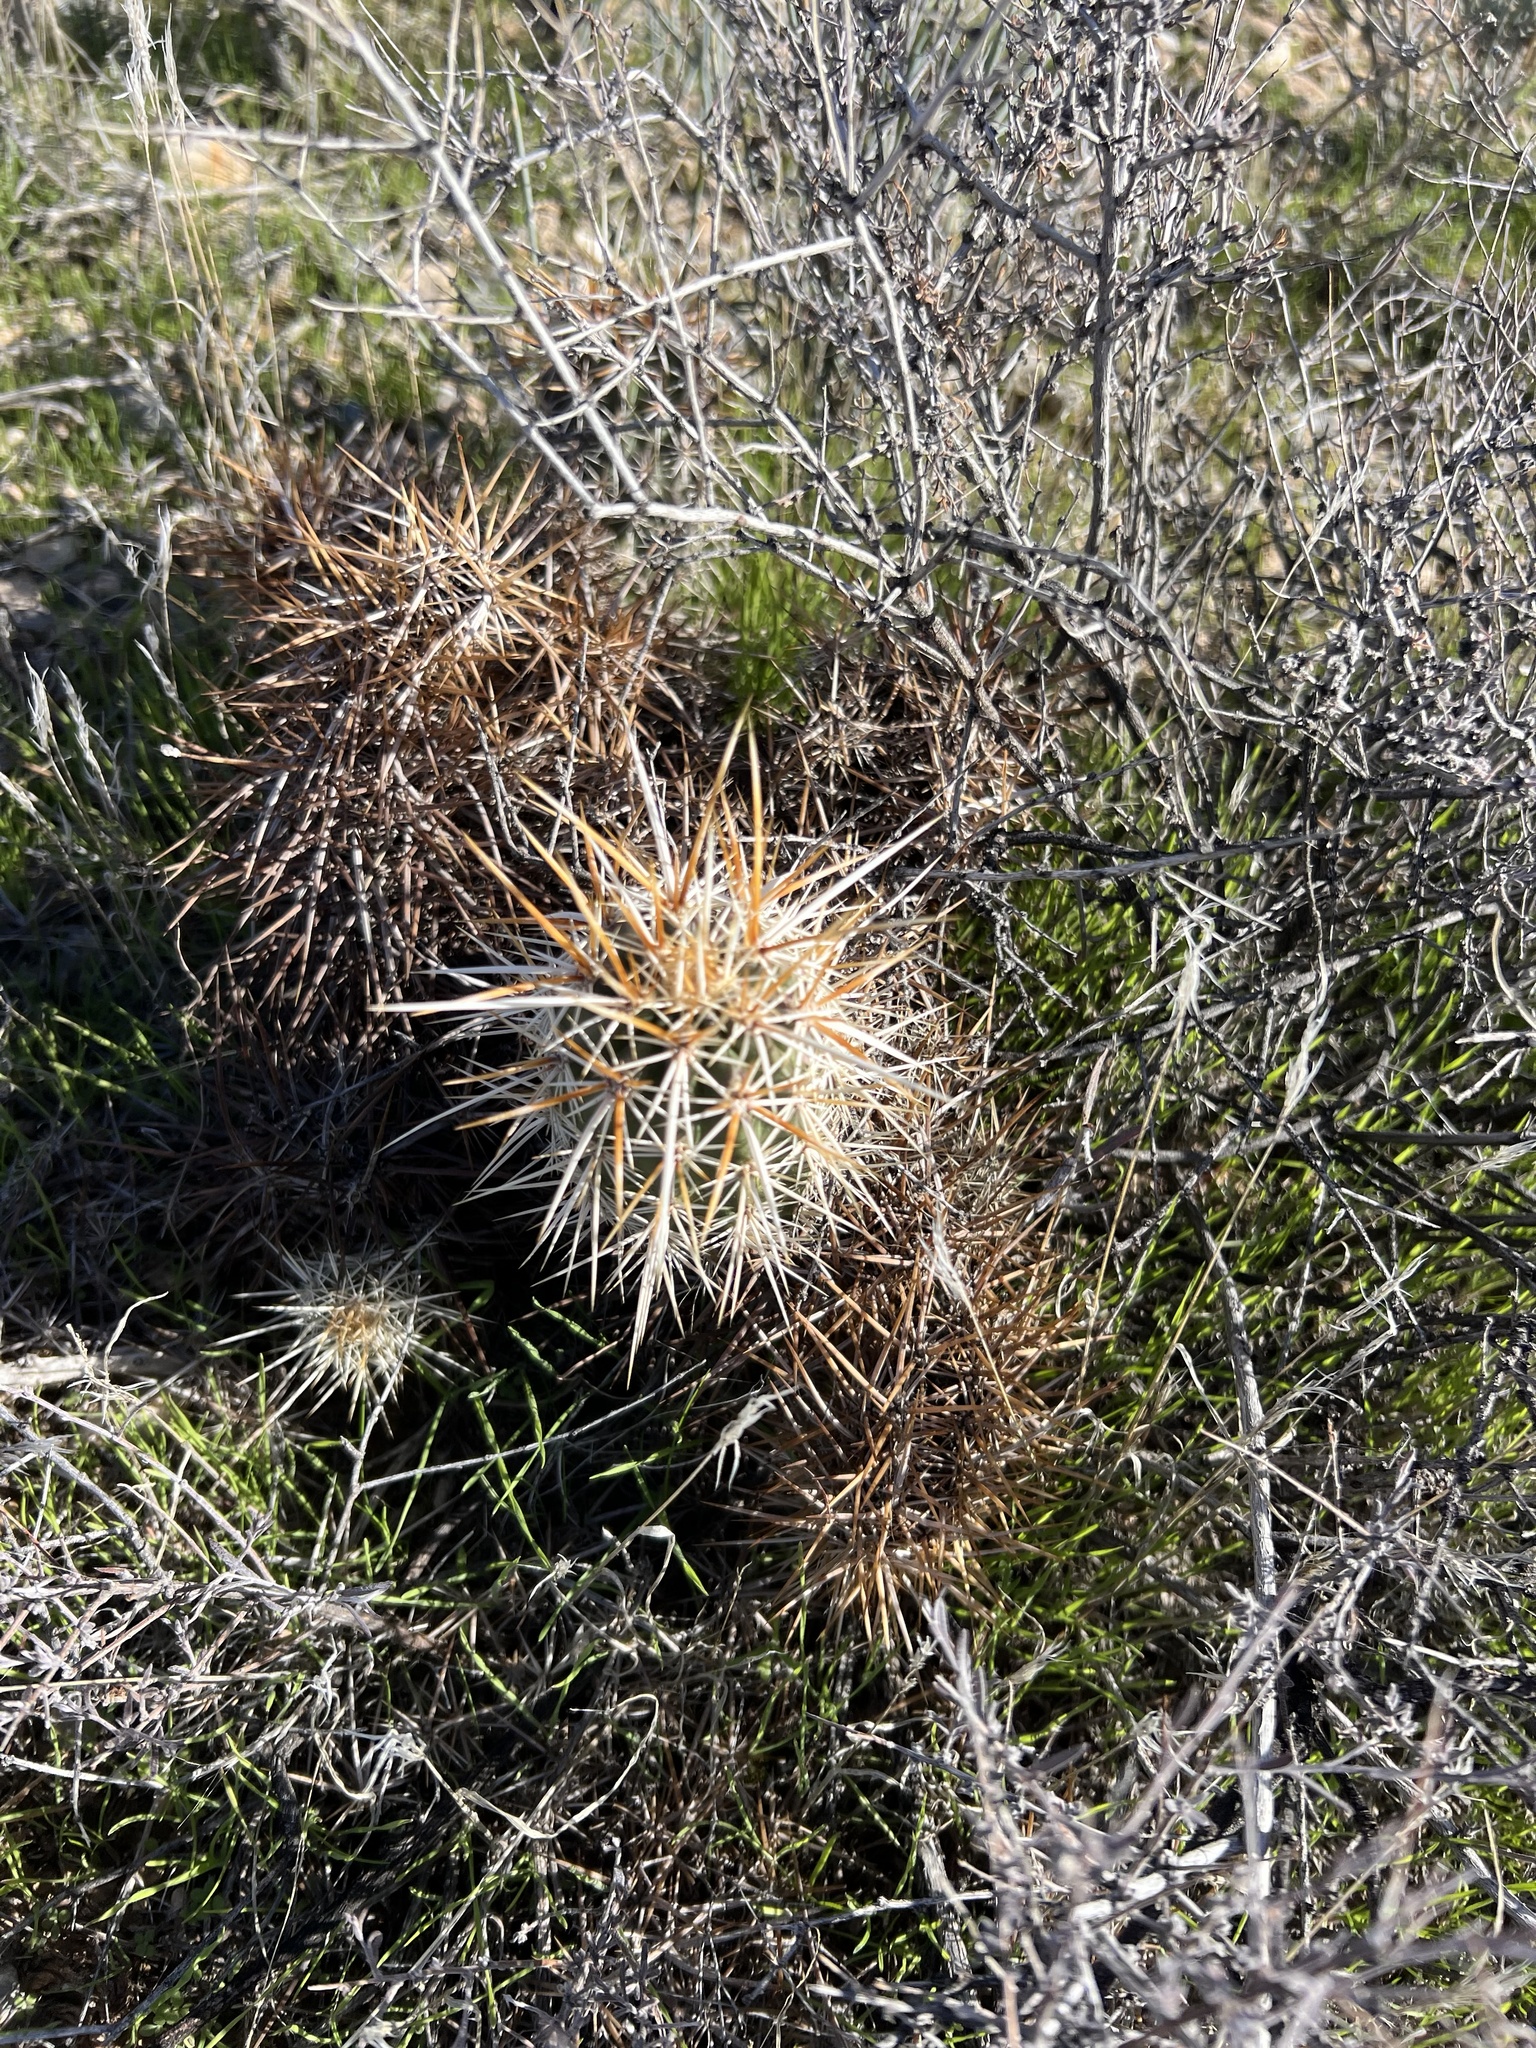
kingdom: Plantae
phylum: Tracheophyta
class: Magnoliopsida
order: Caryophyllales
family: Cactaceae
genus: Echinocereus
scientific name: Echinocereus engelmannii
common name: Engelmann's hedgehog cactus
